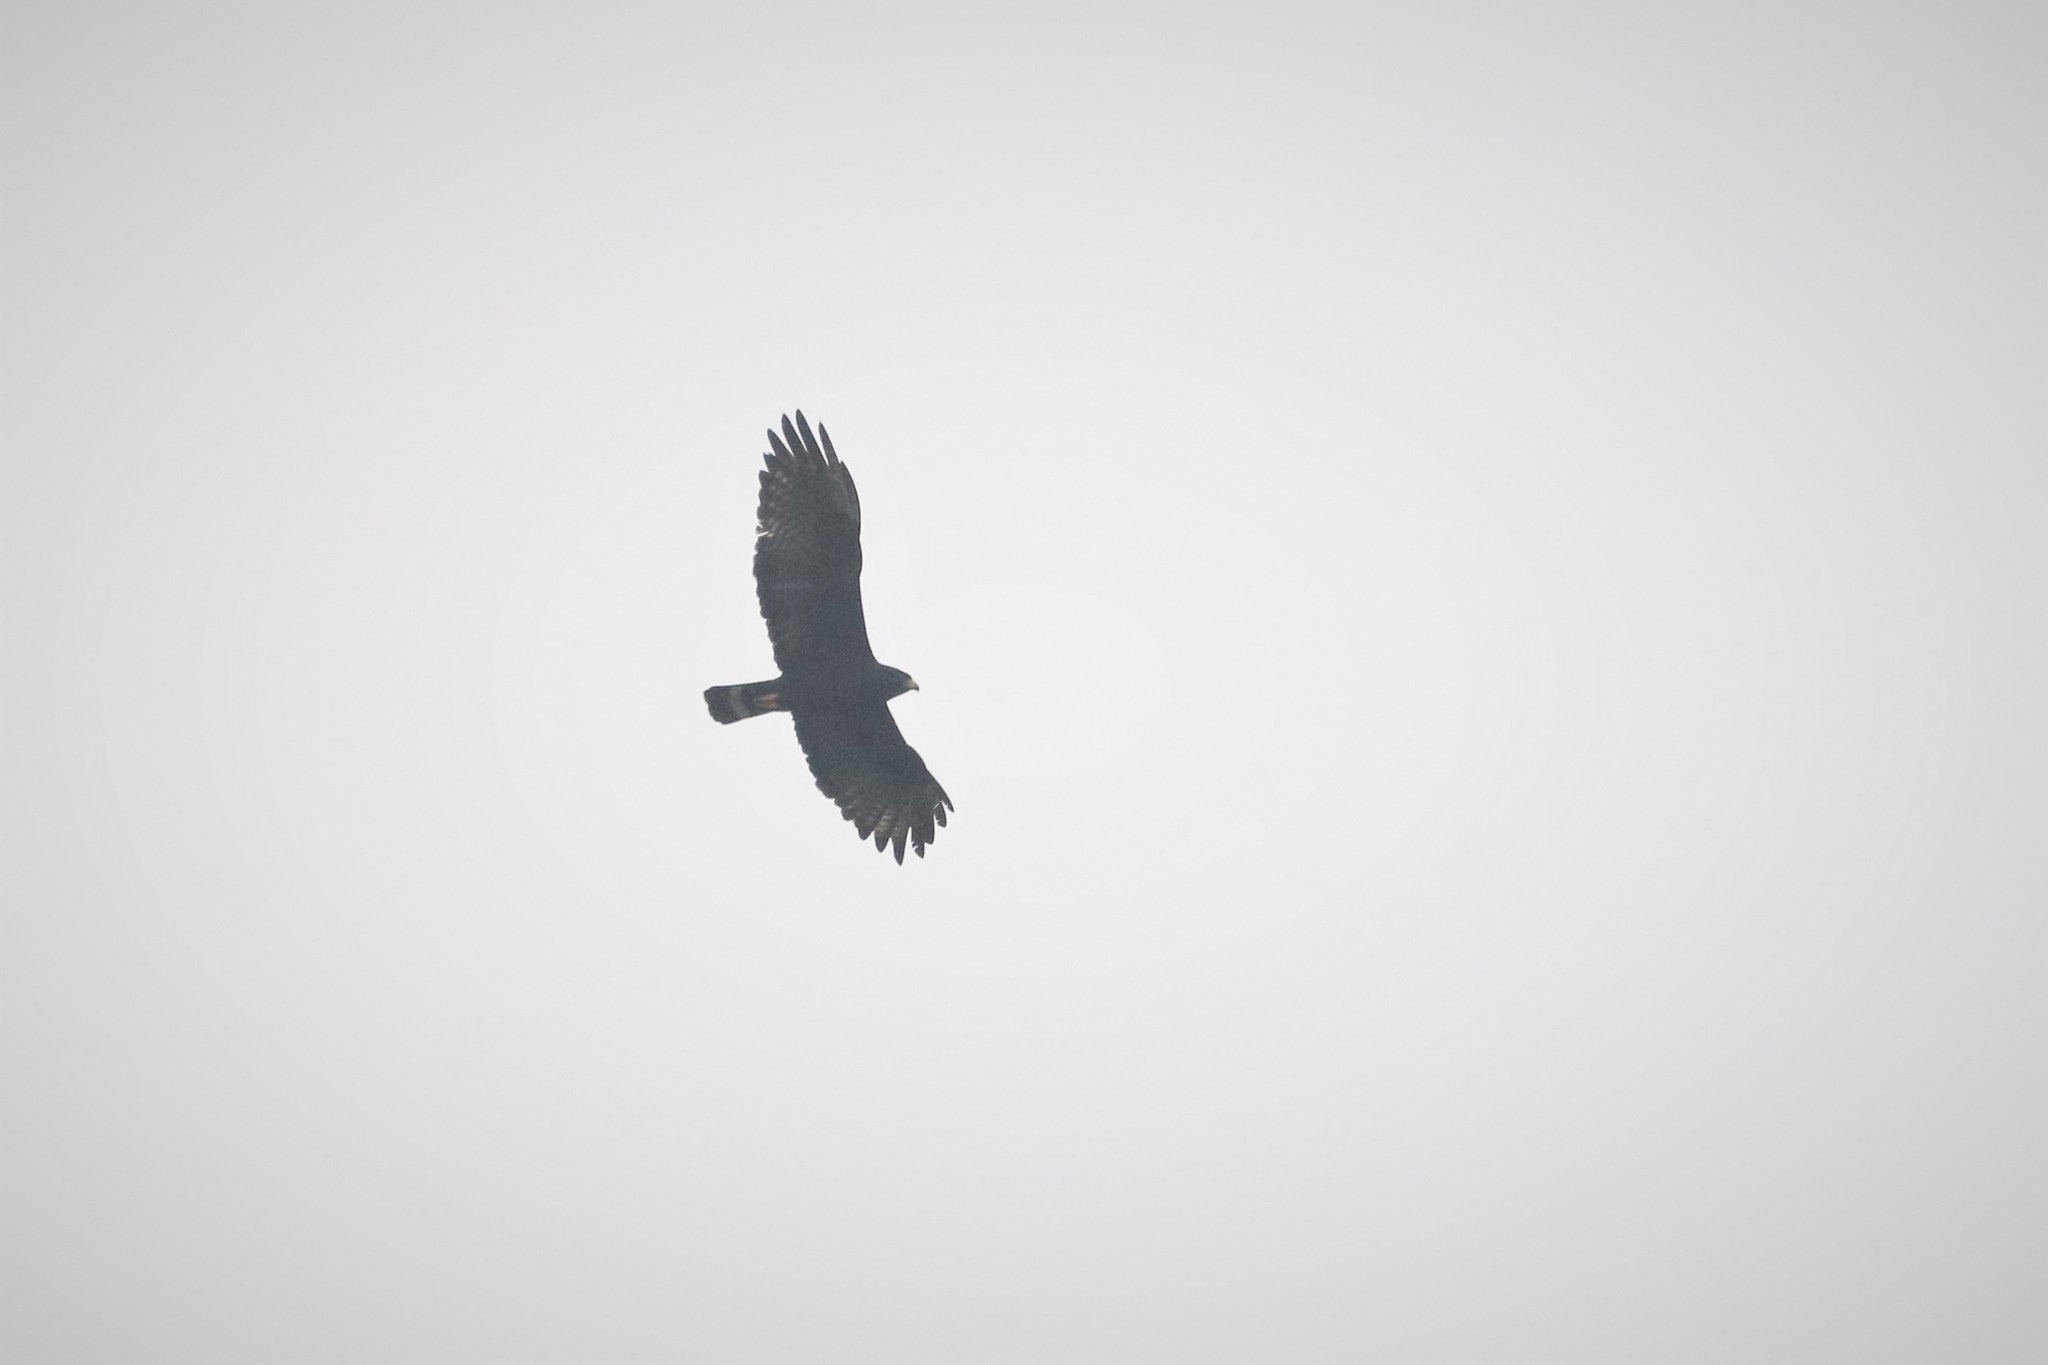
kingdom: Animalia
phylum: Chordata
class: Aves
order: Accipitriformes
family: Accipitridae
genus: Buteo
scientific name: Buteo albonotatus
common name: Zone-tailed hawk
